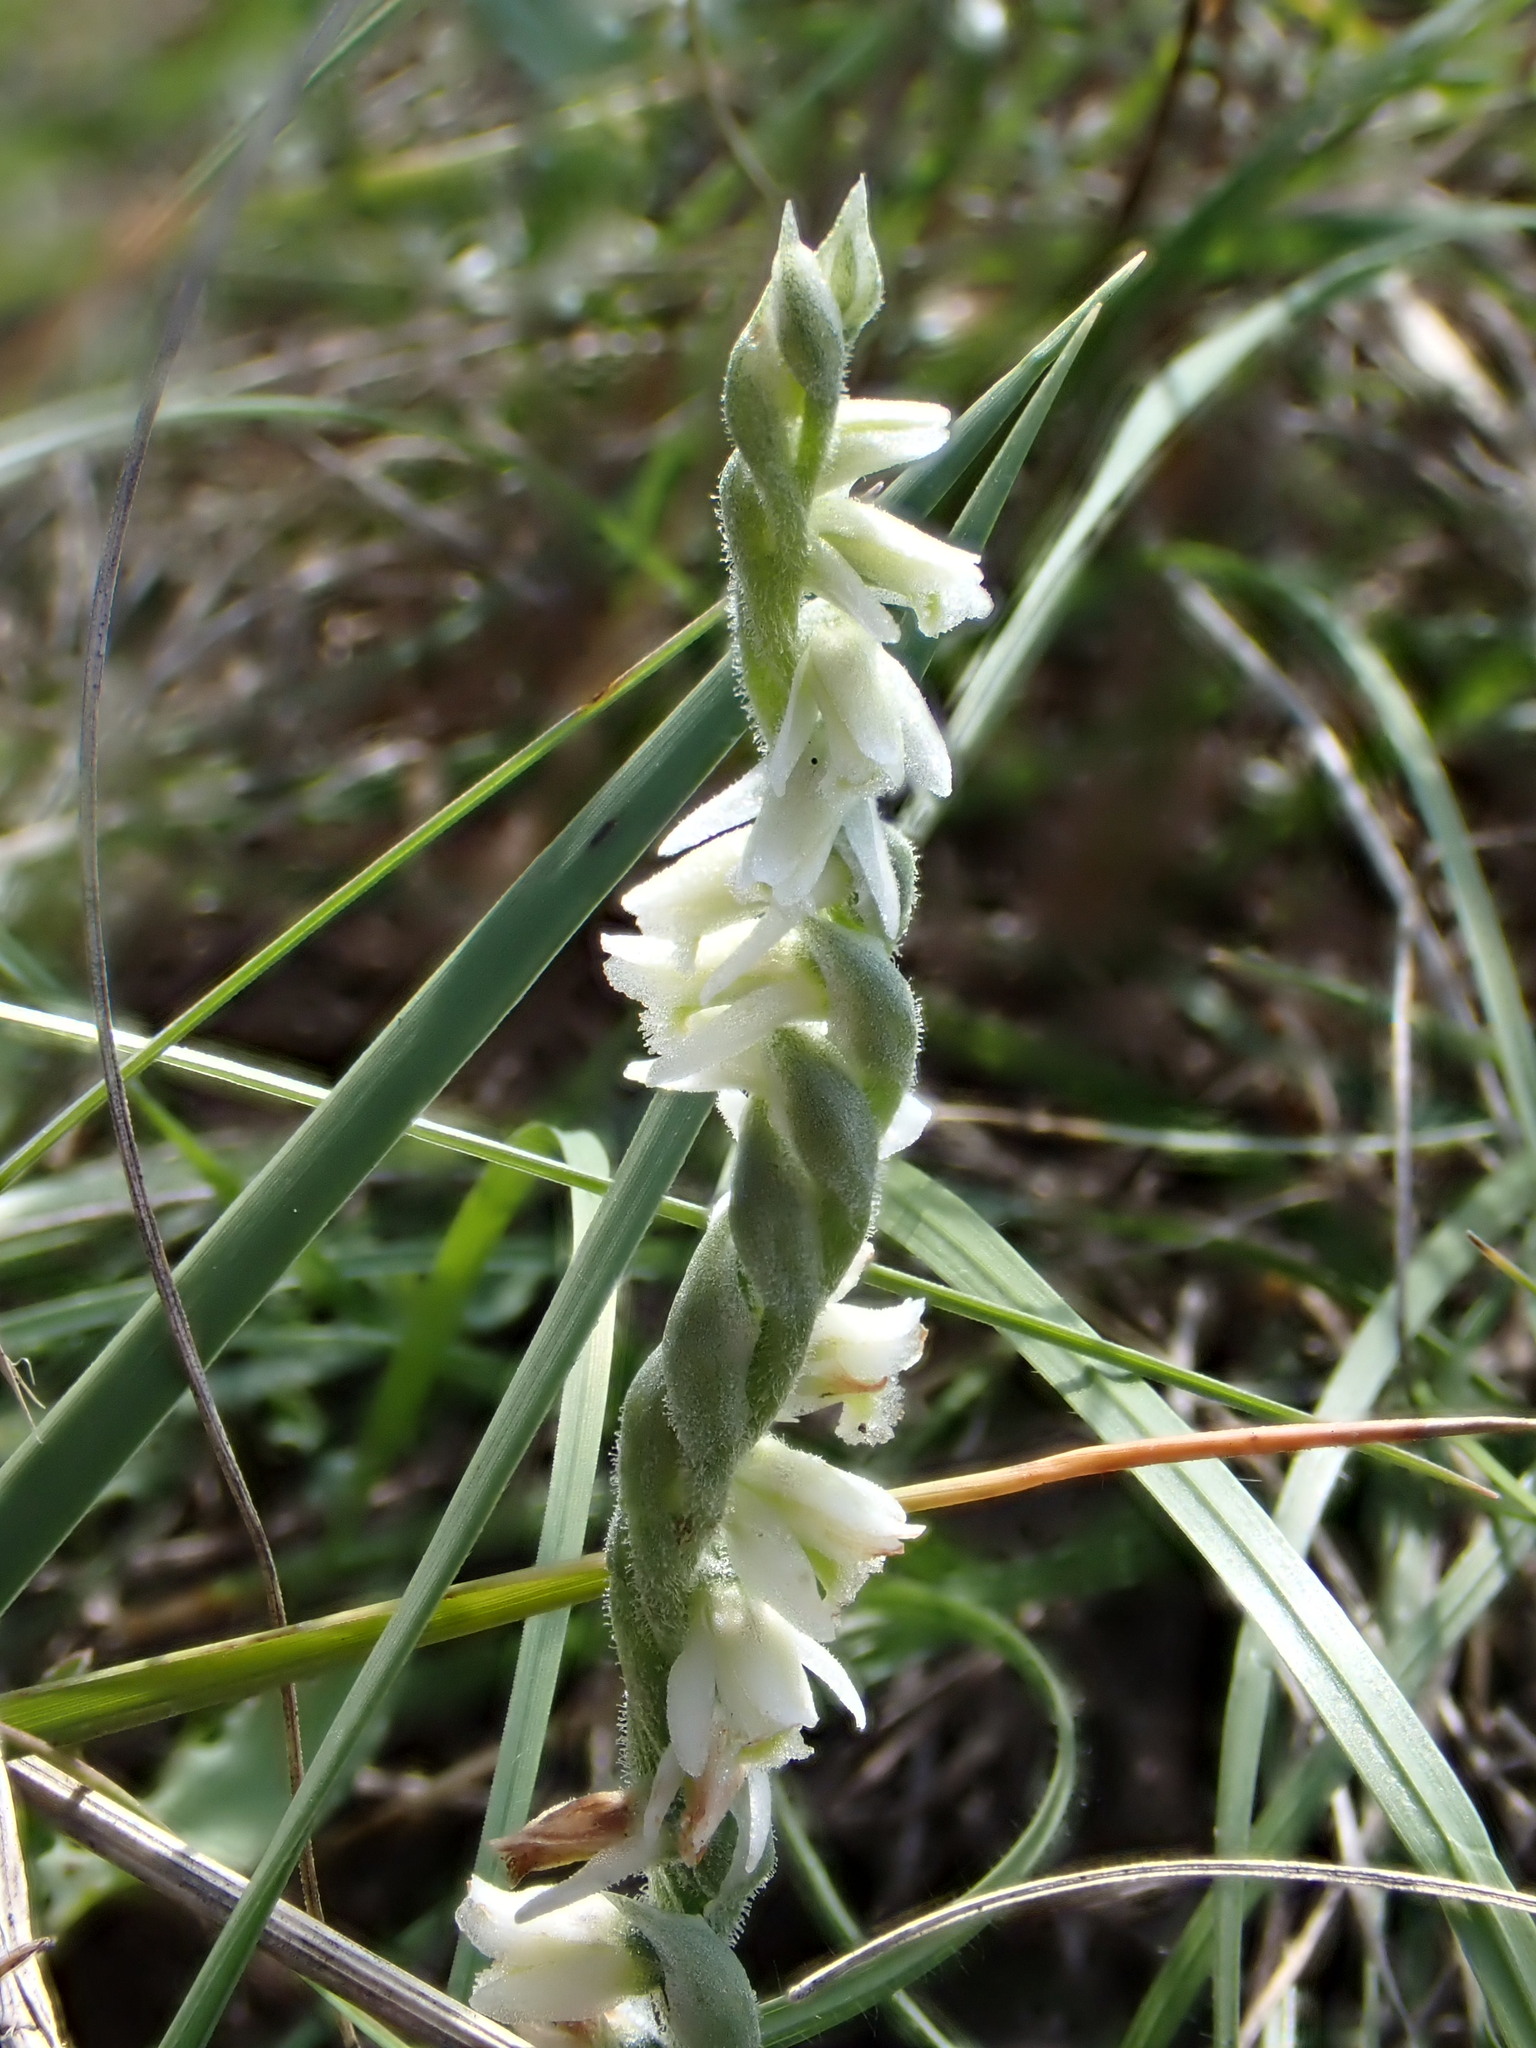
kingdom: Plantae
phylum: Tracheophyta
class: Liliopsida
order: Asparagales
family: Orchidaceae
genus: Spiranthes
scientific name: Spiranthes spiralis
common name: Autumn lady's-tresses
